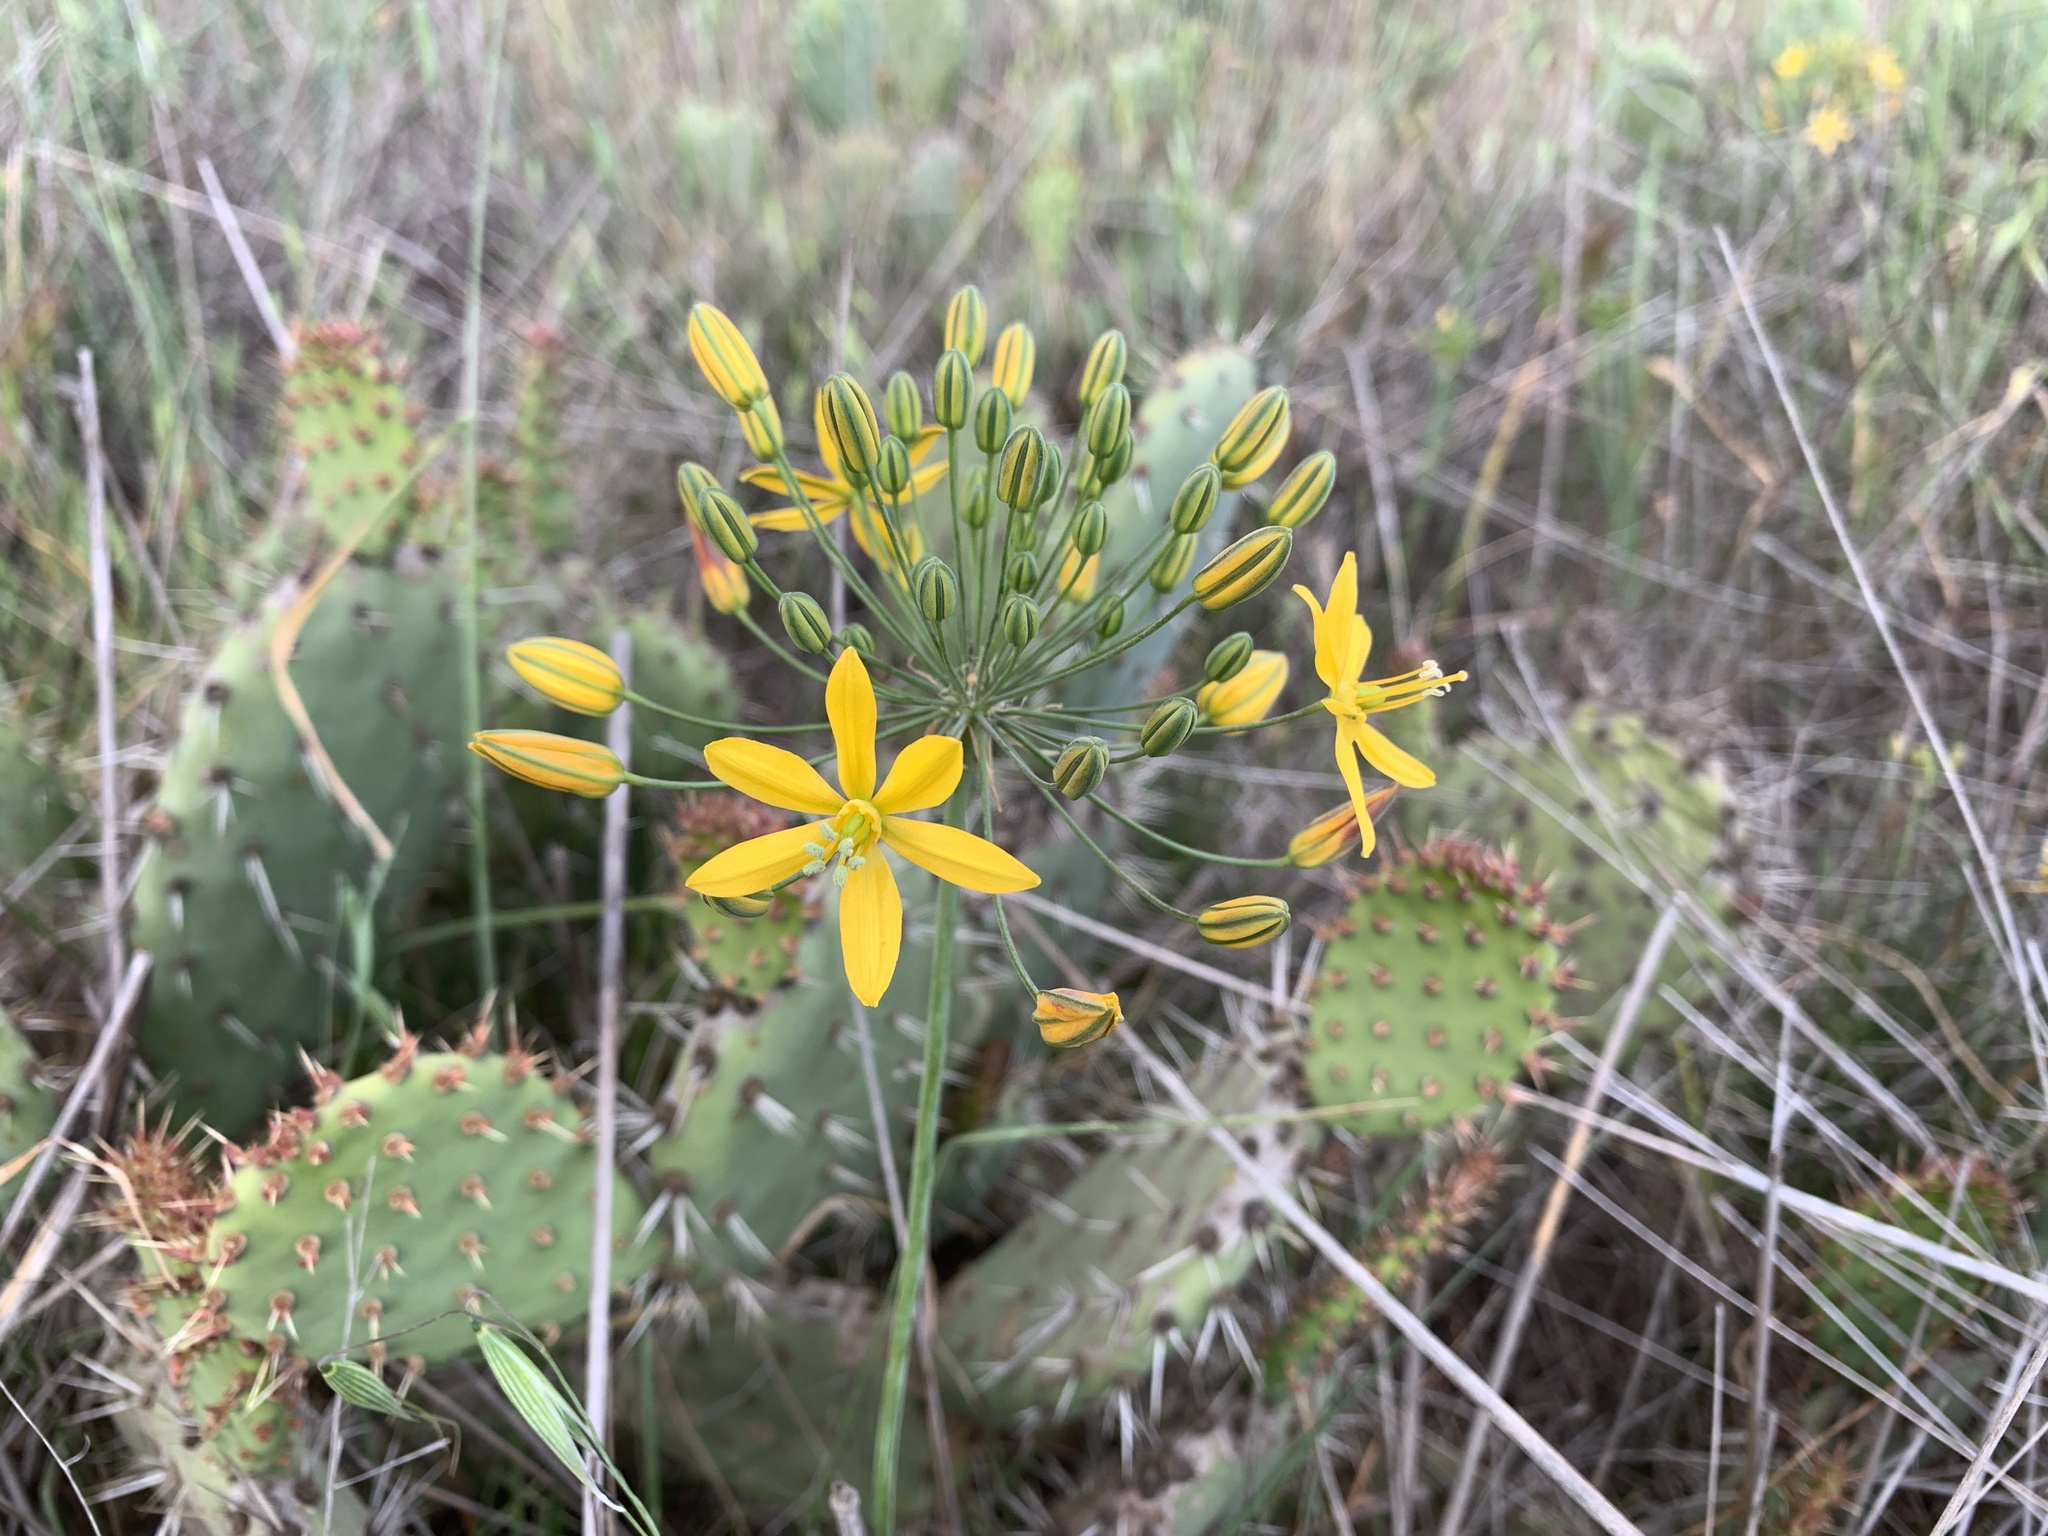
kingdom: Plantae
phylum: Tracheophyta
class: Liliopsida
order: Asparagales
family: Asparagaceae
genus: Bloomeria
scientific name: Bloomeria crocea
